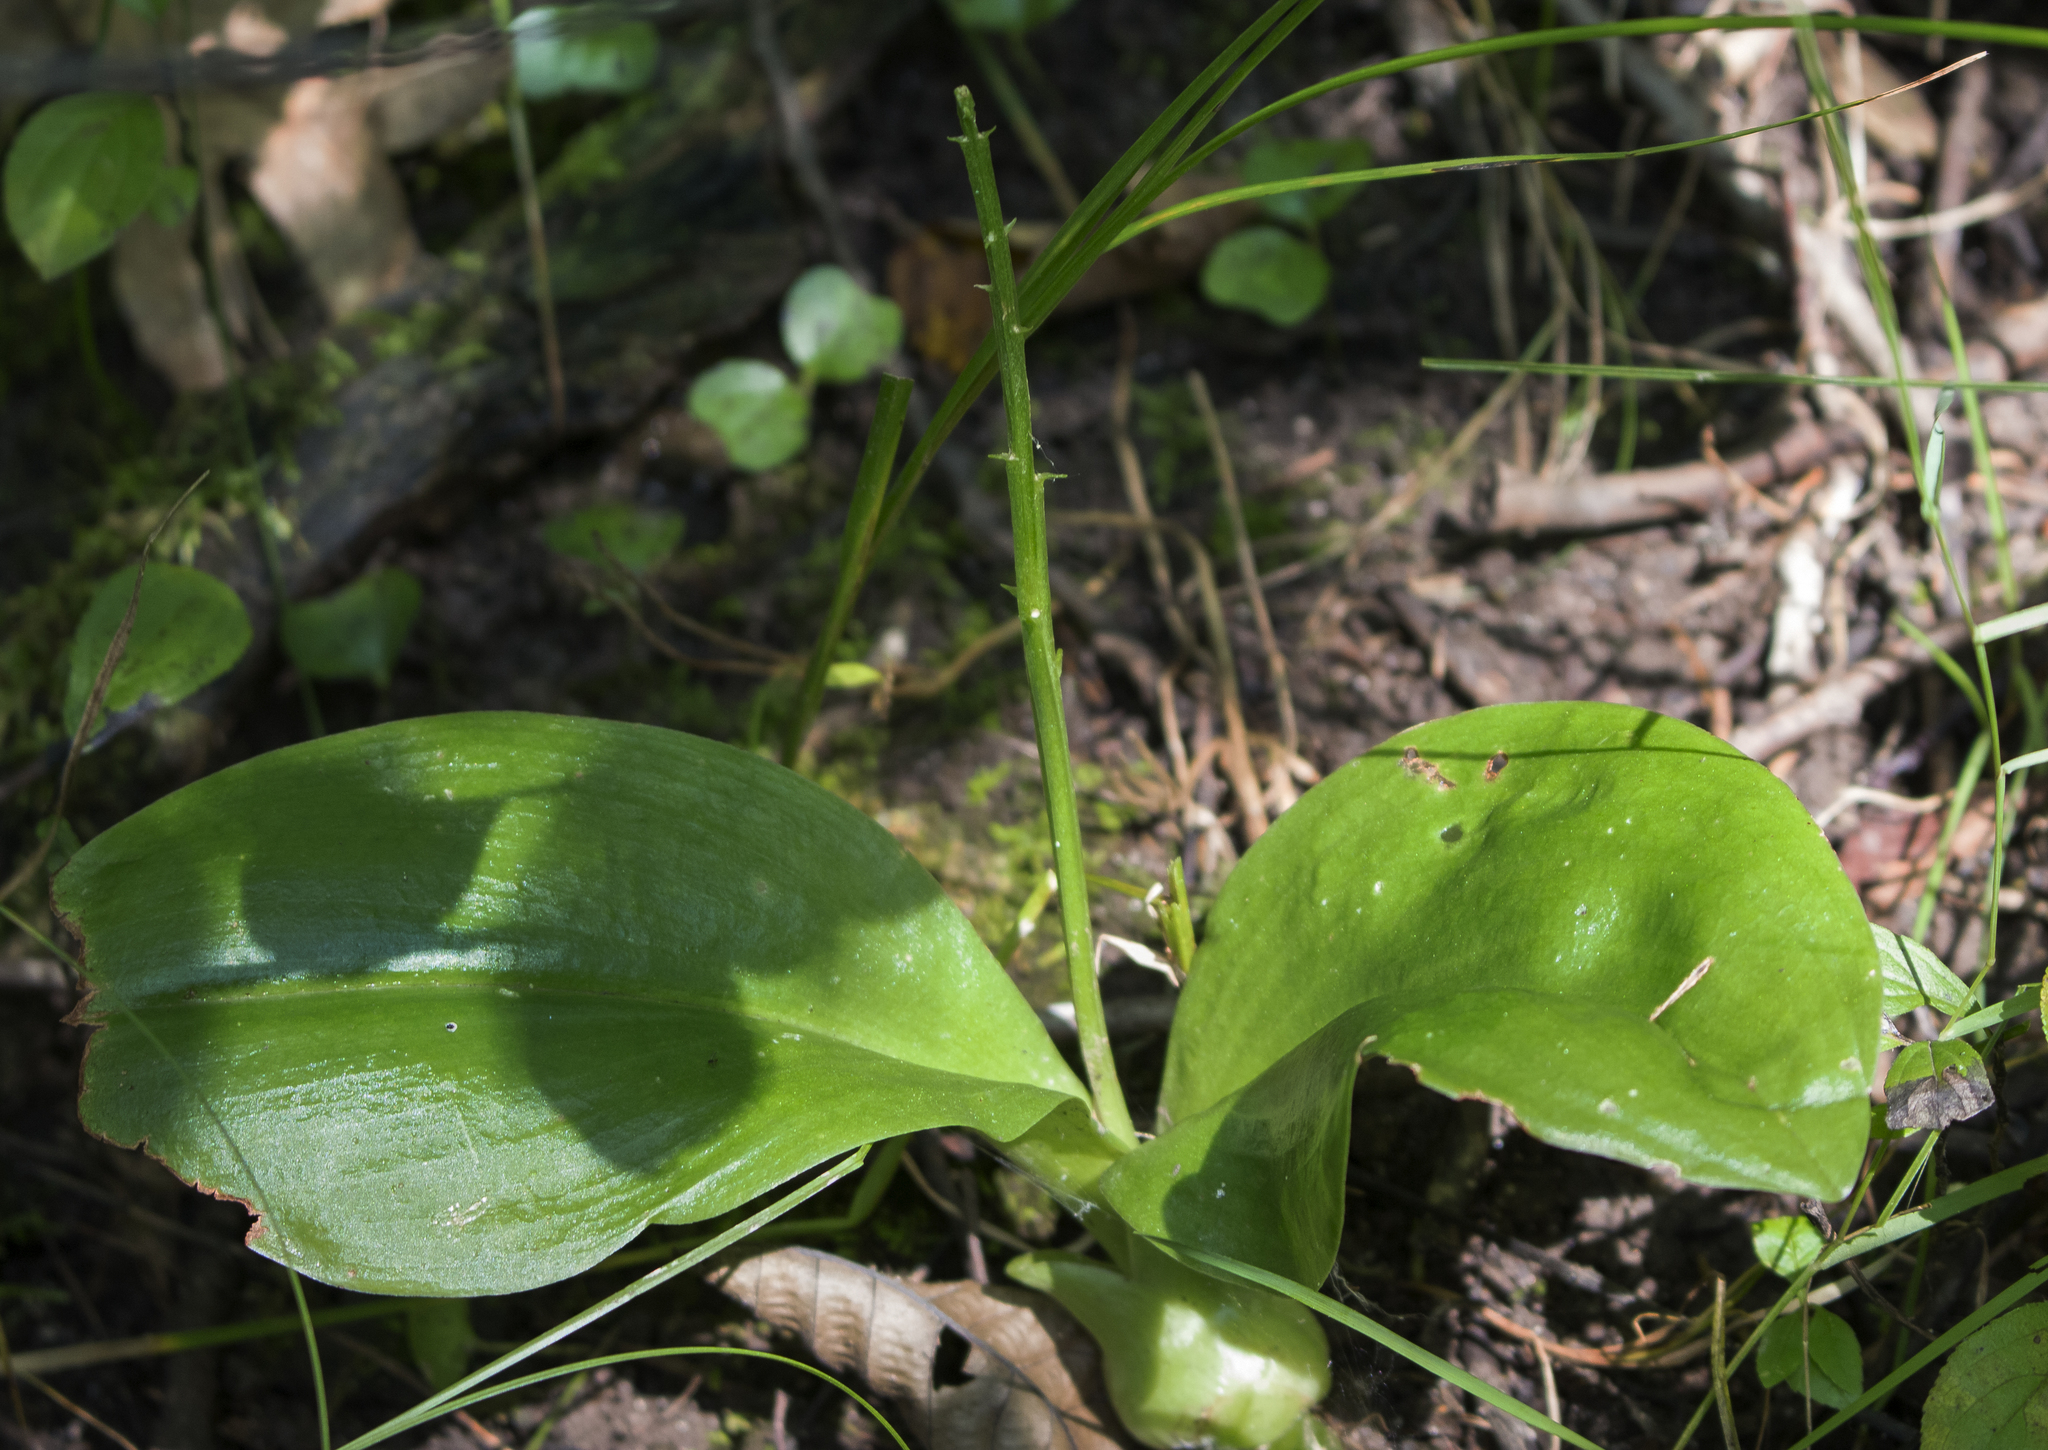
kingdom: Plantae
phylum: Tracheophyta
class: Liliopsida
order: Asparagales
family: Orchidaceae
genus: Liparis
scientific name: Liparis liliifolia
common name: Brown wide-lip orchid
